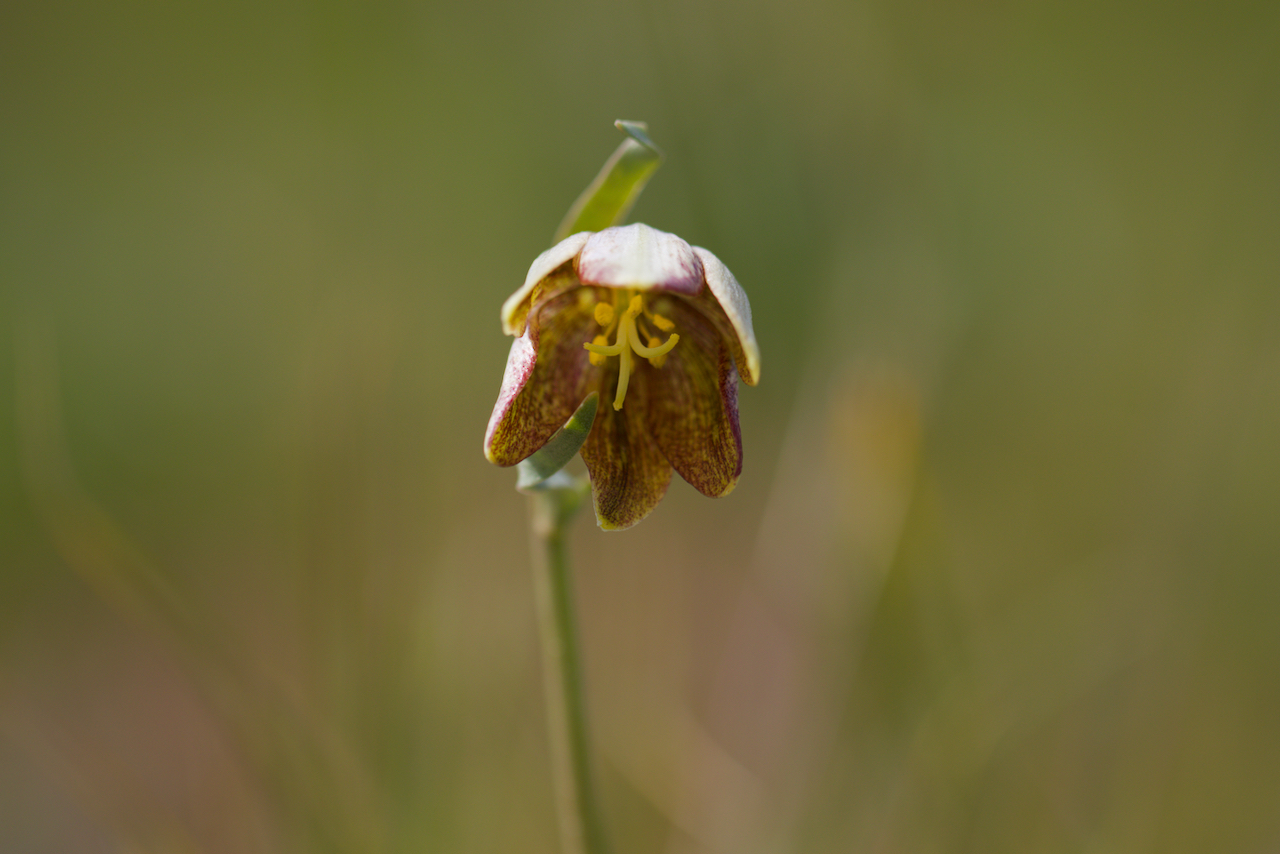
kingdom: Plantae
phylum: Tracheophyta
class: Liliopsida
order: Liliales
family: Liliaceae
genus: Fritillaria
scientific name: Fritillaria agrestis
